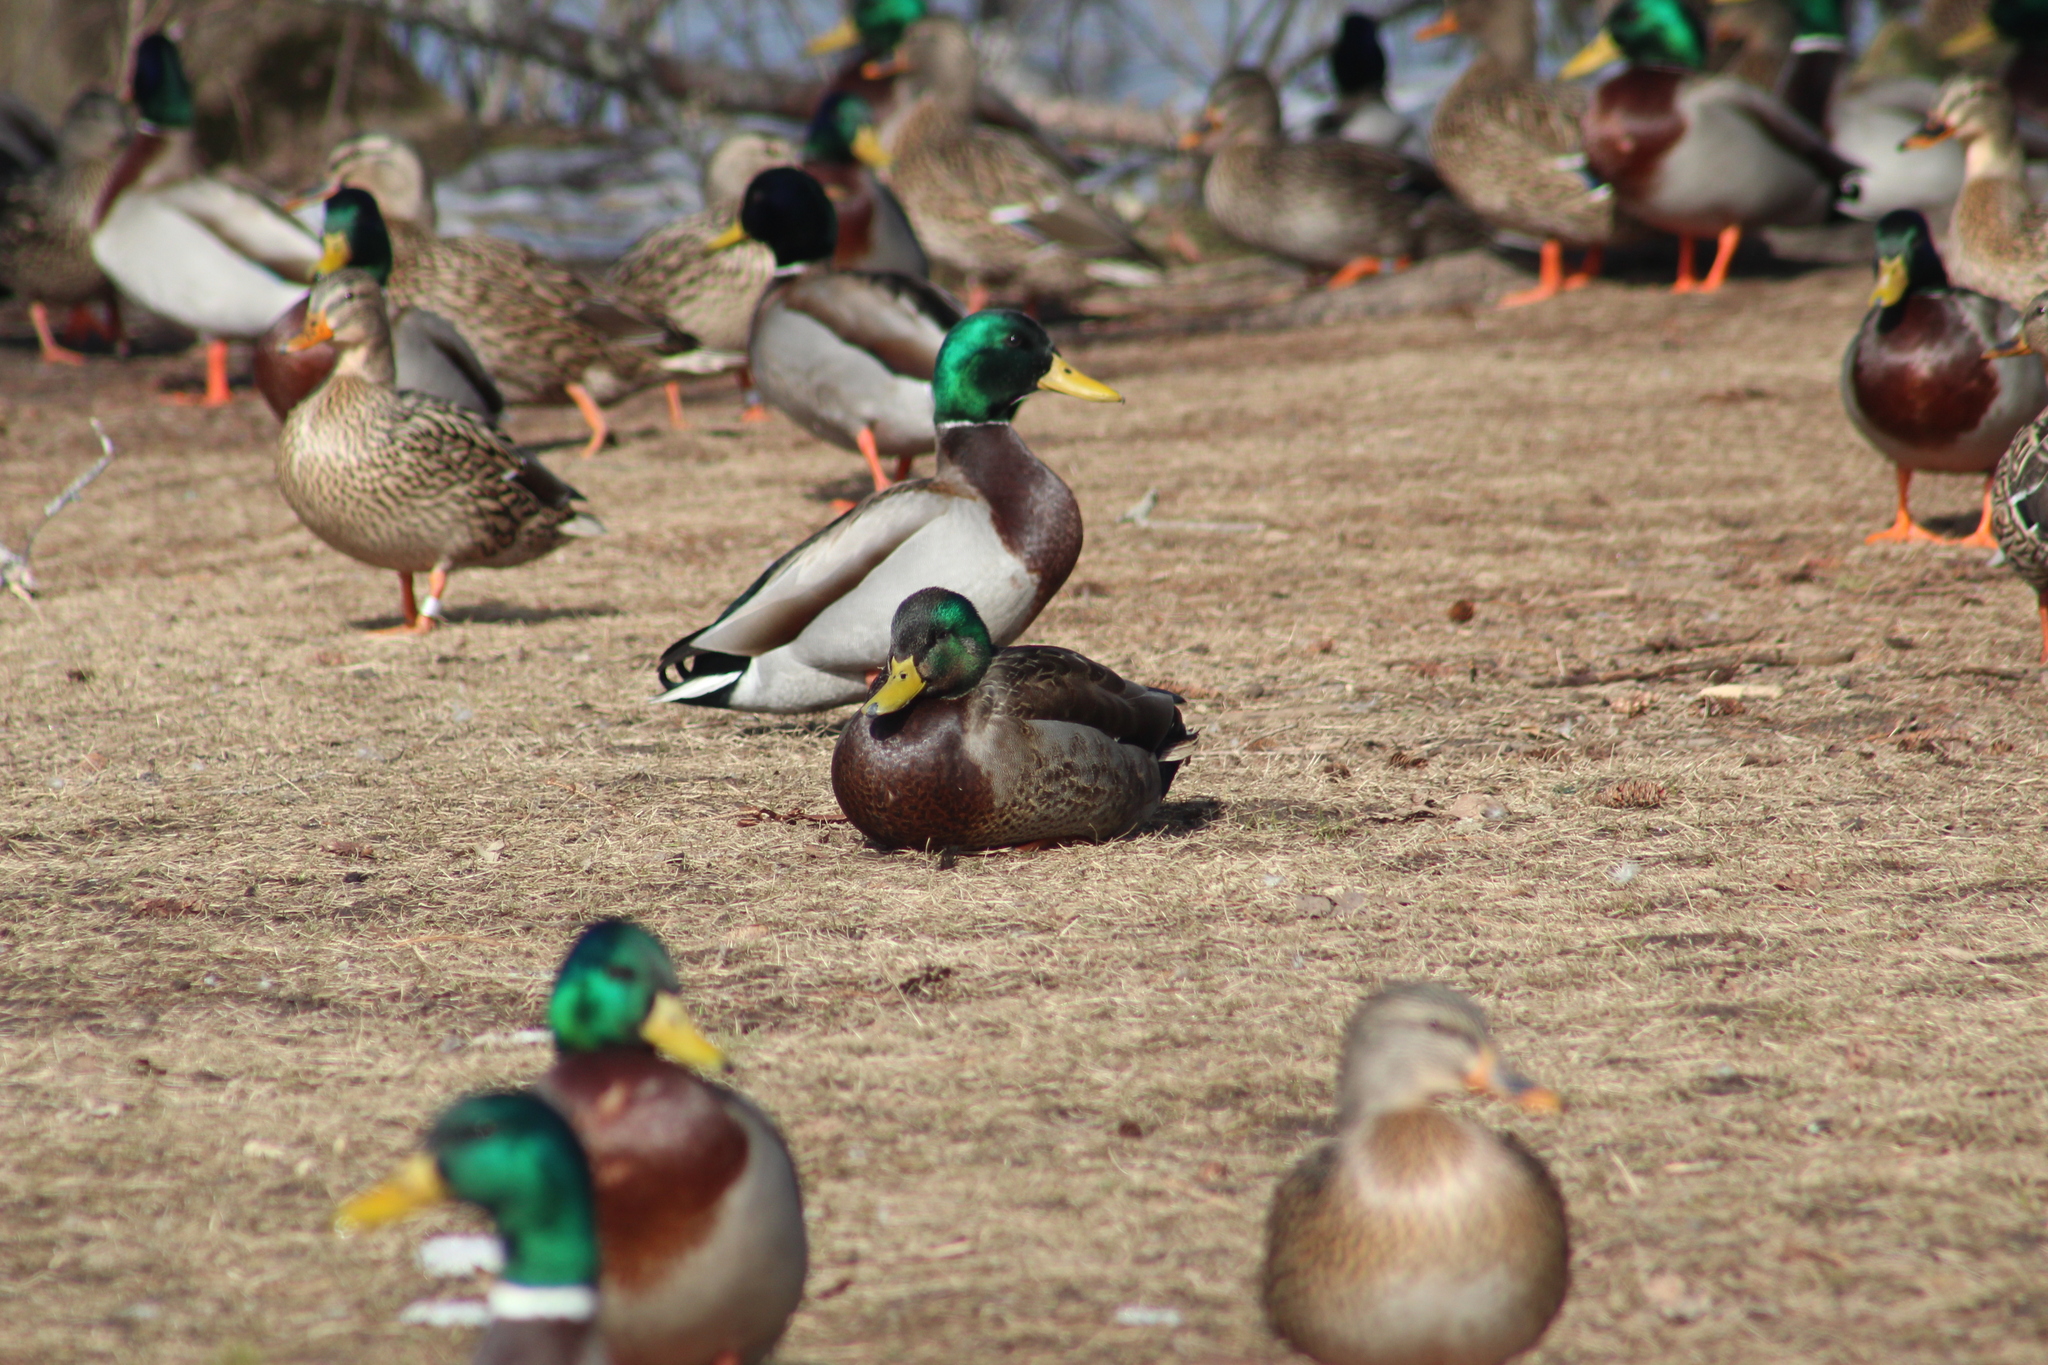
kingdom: Animalia
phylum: Chordata
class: Aves
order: Anseriformes
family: Anatidae
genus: Anas
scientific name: Anas platyrhynchos
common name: Mallard
